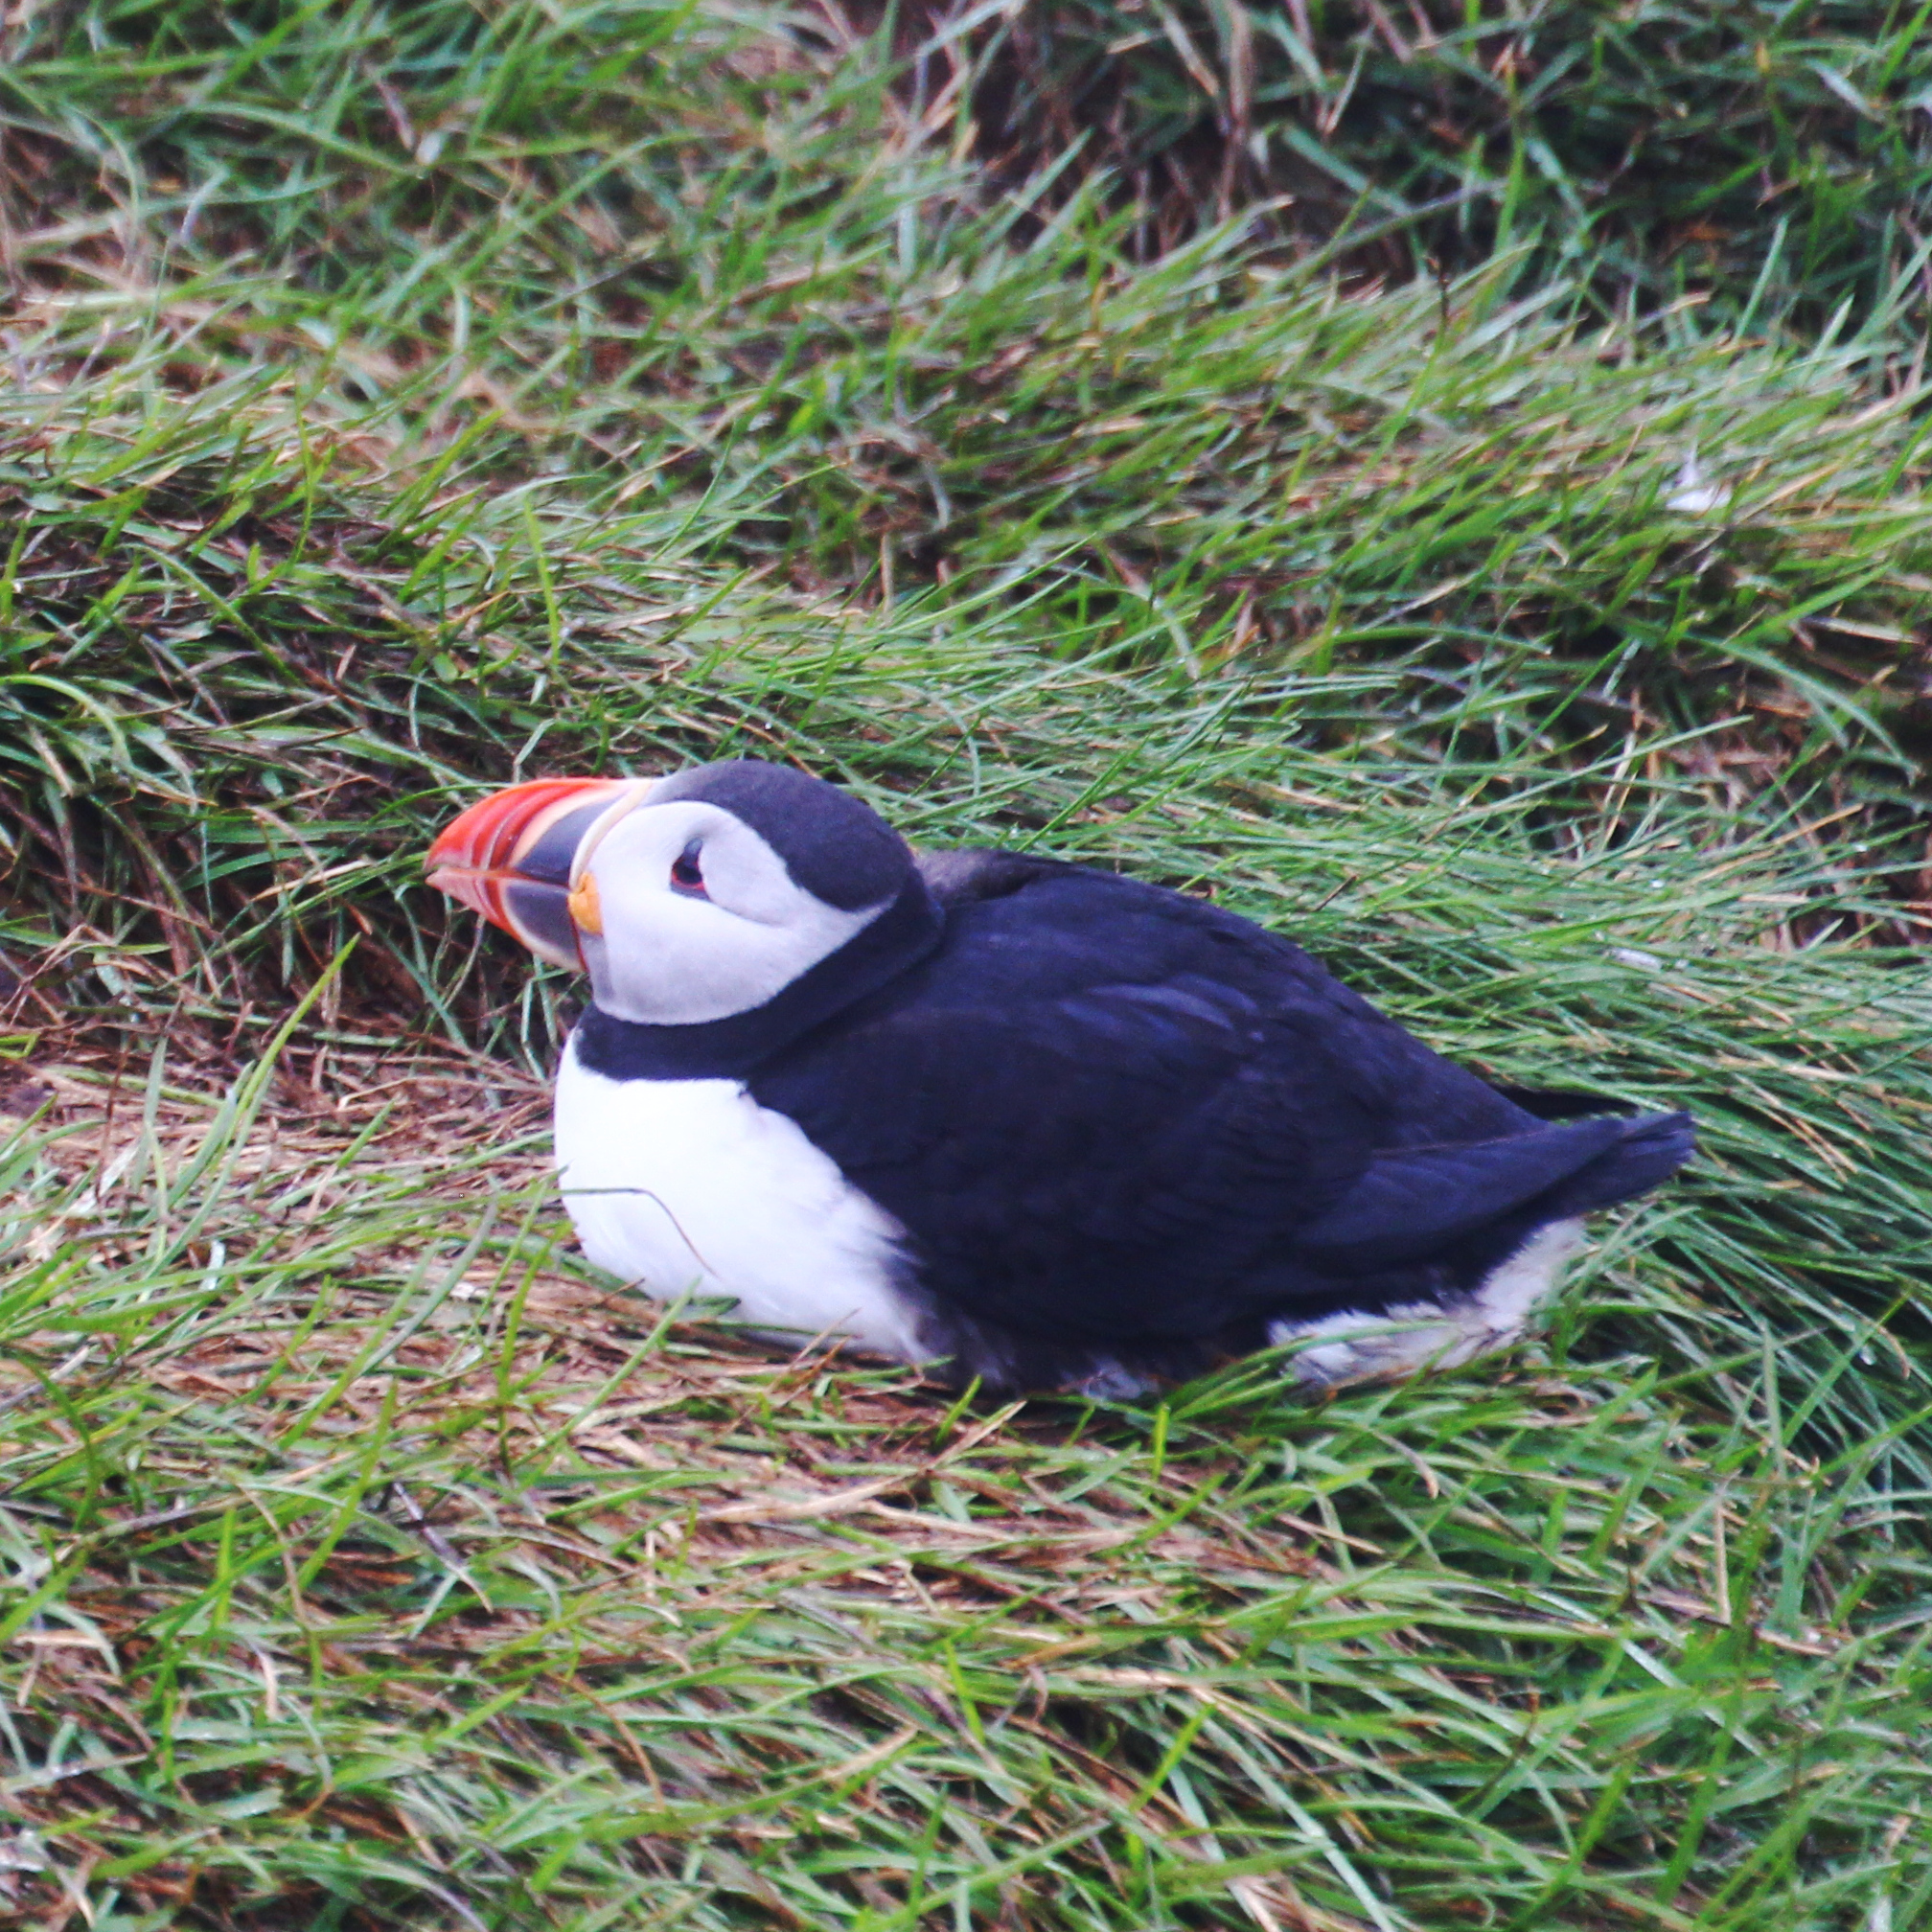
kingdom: Animalia
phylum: Chordata
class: Aves
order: Charadriiformes
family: Alcidae
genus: Fratercula
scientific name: Fratercula arctica
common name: Atlantic puffin
